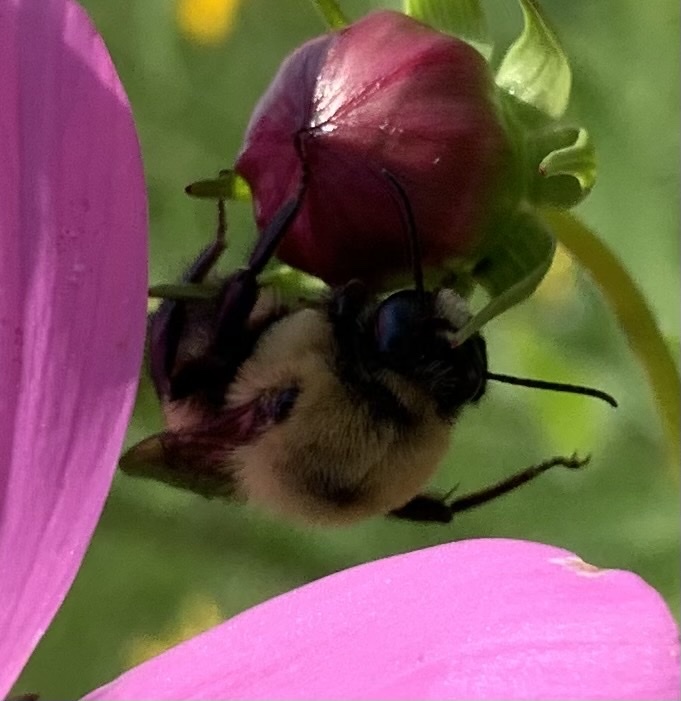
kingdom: Animalia
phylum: Arthropoda
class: Insecta
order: Hymenoptera
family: Apidae
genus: Bombus
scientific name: Bombus griseocollis
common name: Brown-belted bumble bee
